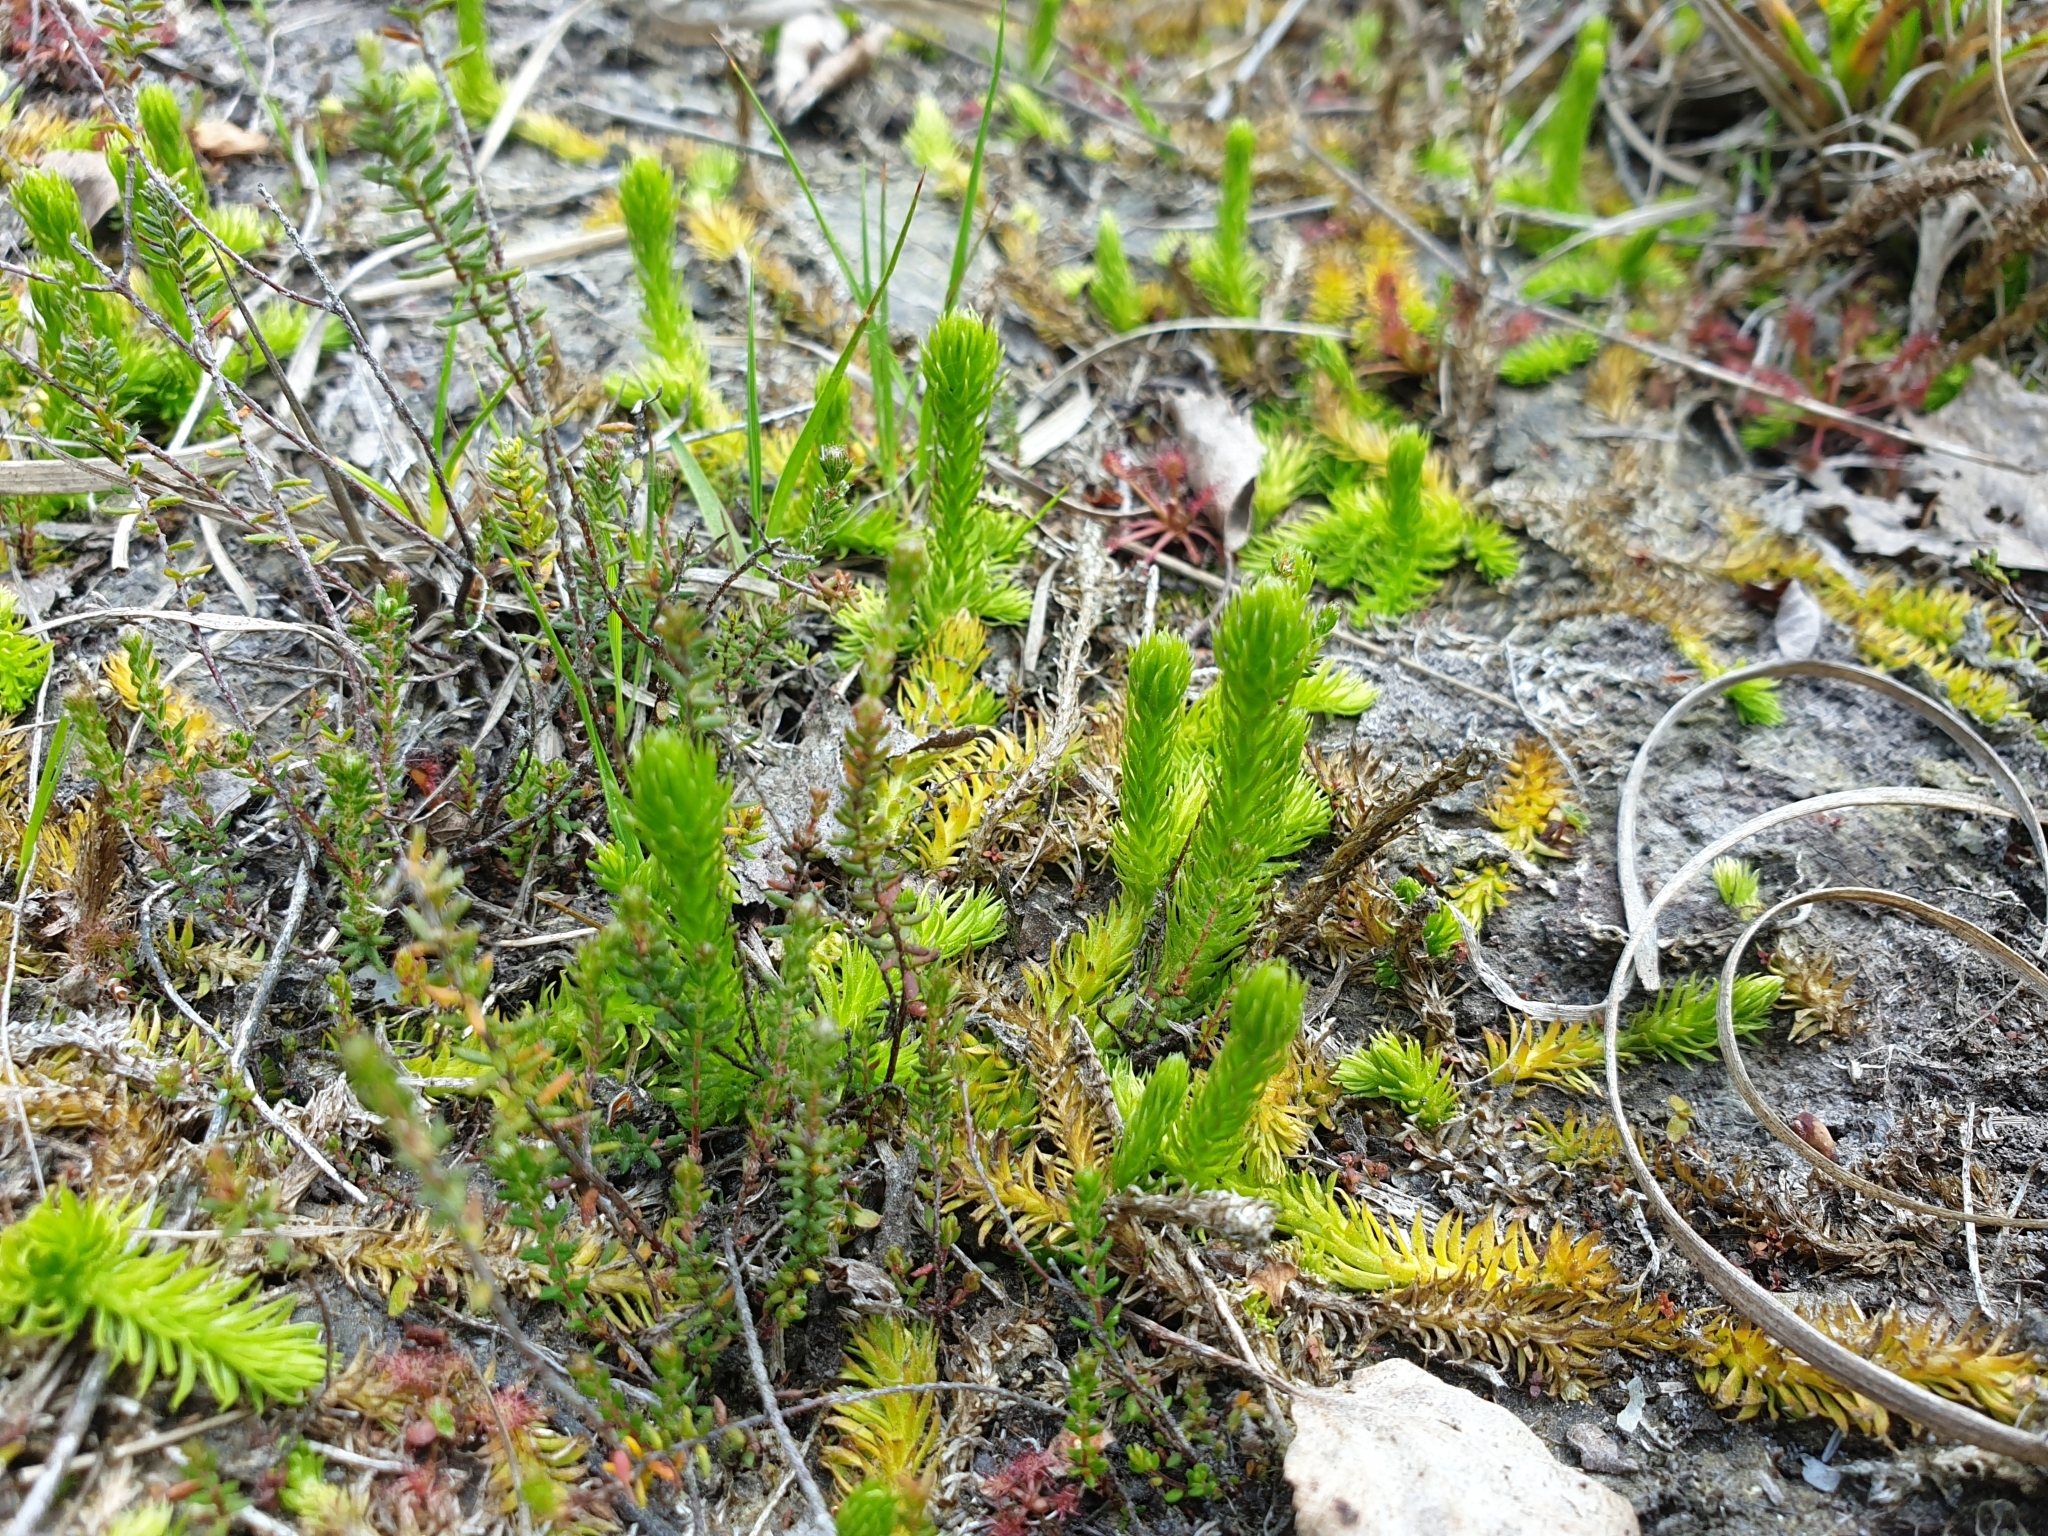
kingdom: Plantae
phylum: Tracheophyta
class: Lycopodiopsida
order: Lycopodiales
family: Lycopodiaceae
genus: Lycopodiella
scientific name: Lycopodiella inundata
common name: Marsh clubmoss
